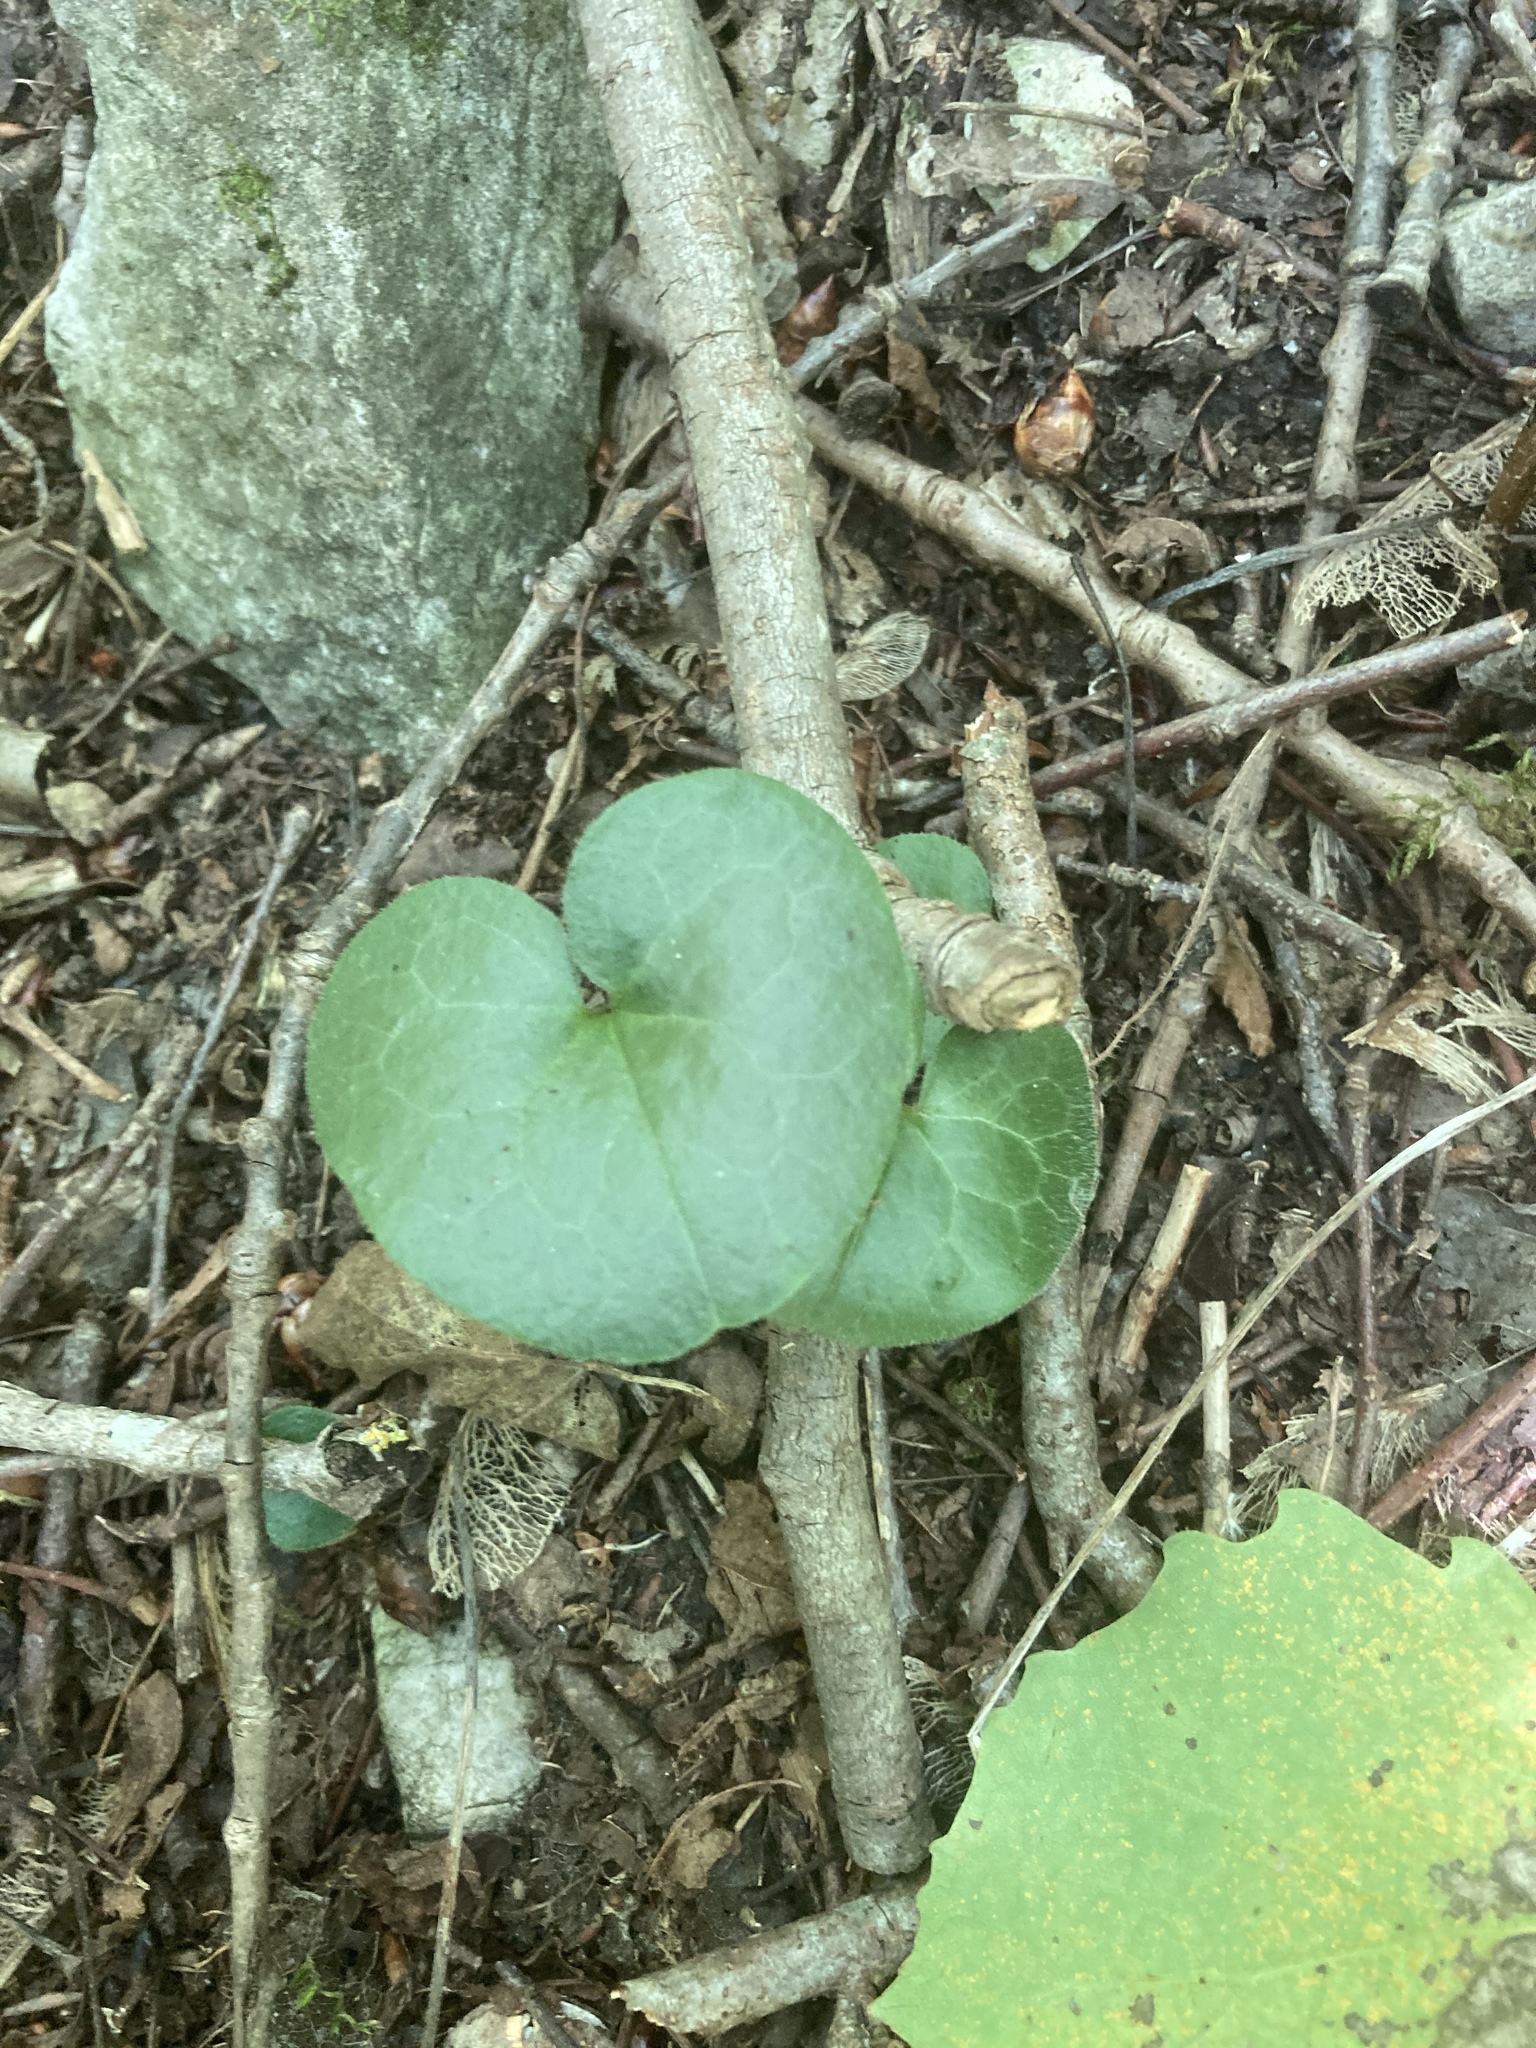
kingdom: Plantae
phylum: Tracheophyta
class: Magnoliopsida
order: Piperales
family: Aristolochiaceae
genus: Asarum
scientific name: Asarum europaeum
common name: Asarabacca
